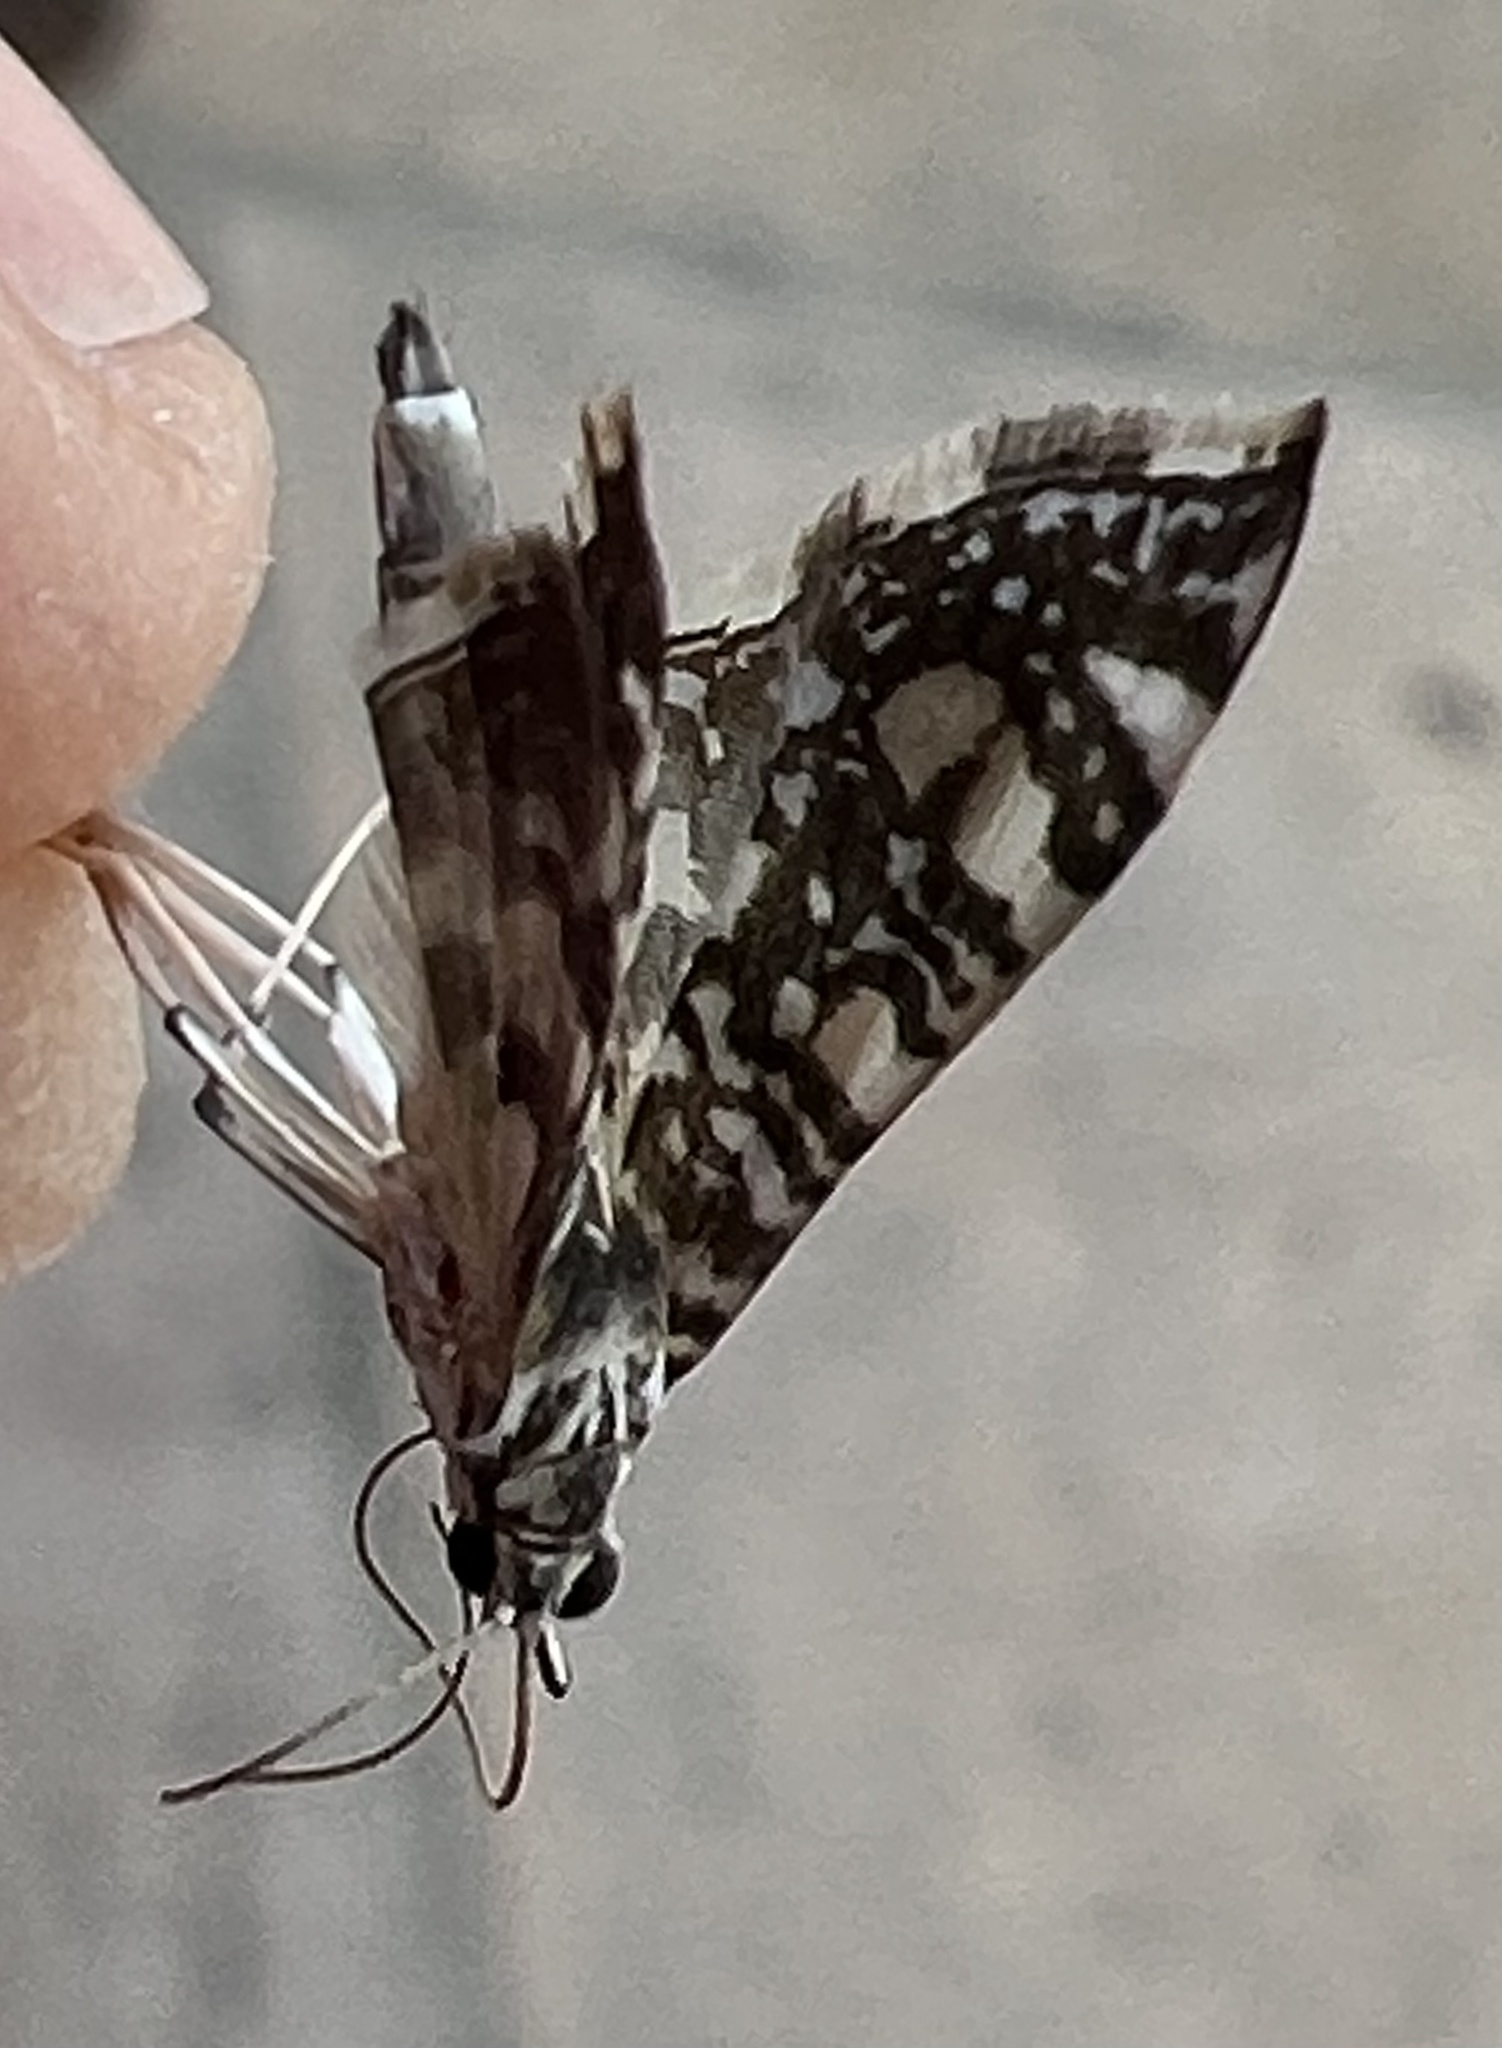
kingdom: Animalia
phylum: Arthropoda
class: Insecta
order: Lepidoptera
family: Crambidae
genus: Glyphodes
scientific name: Glyphodes onychinalis
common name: Swan plant moth
